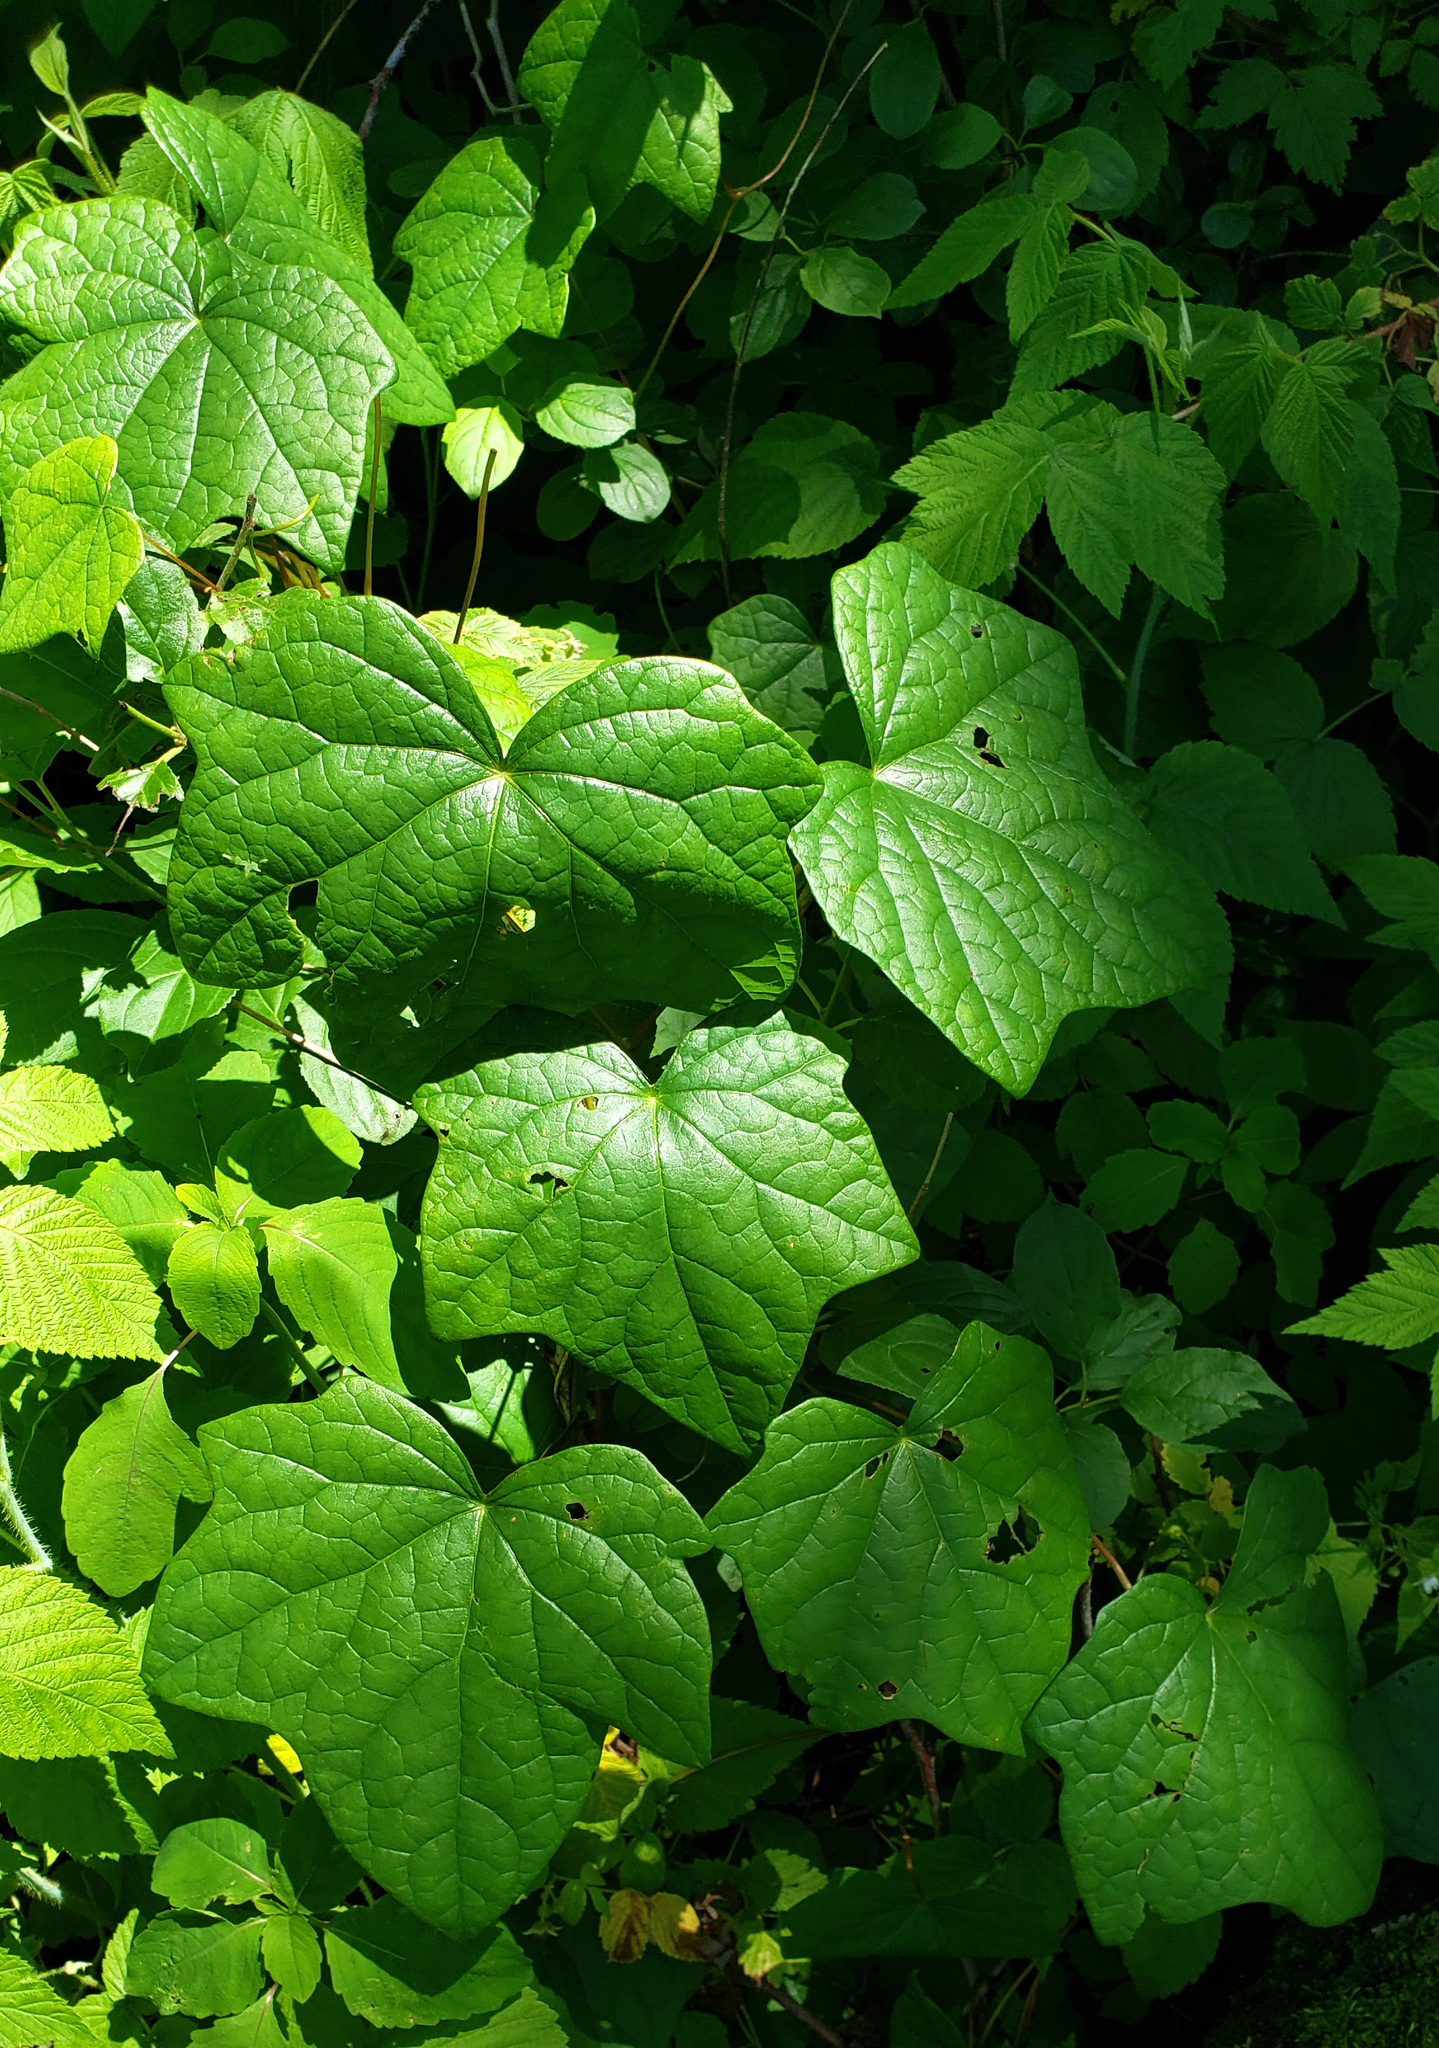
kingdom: Plantae
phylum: Tracheophyta
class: Magnoliopsida
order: Ranunculales
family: Menispermaceae
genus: Menispermum
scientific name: Menispermum canadense
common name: Moonseed
